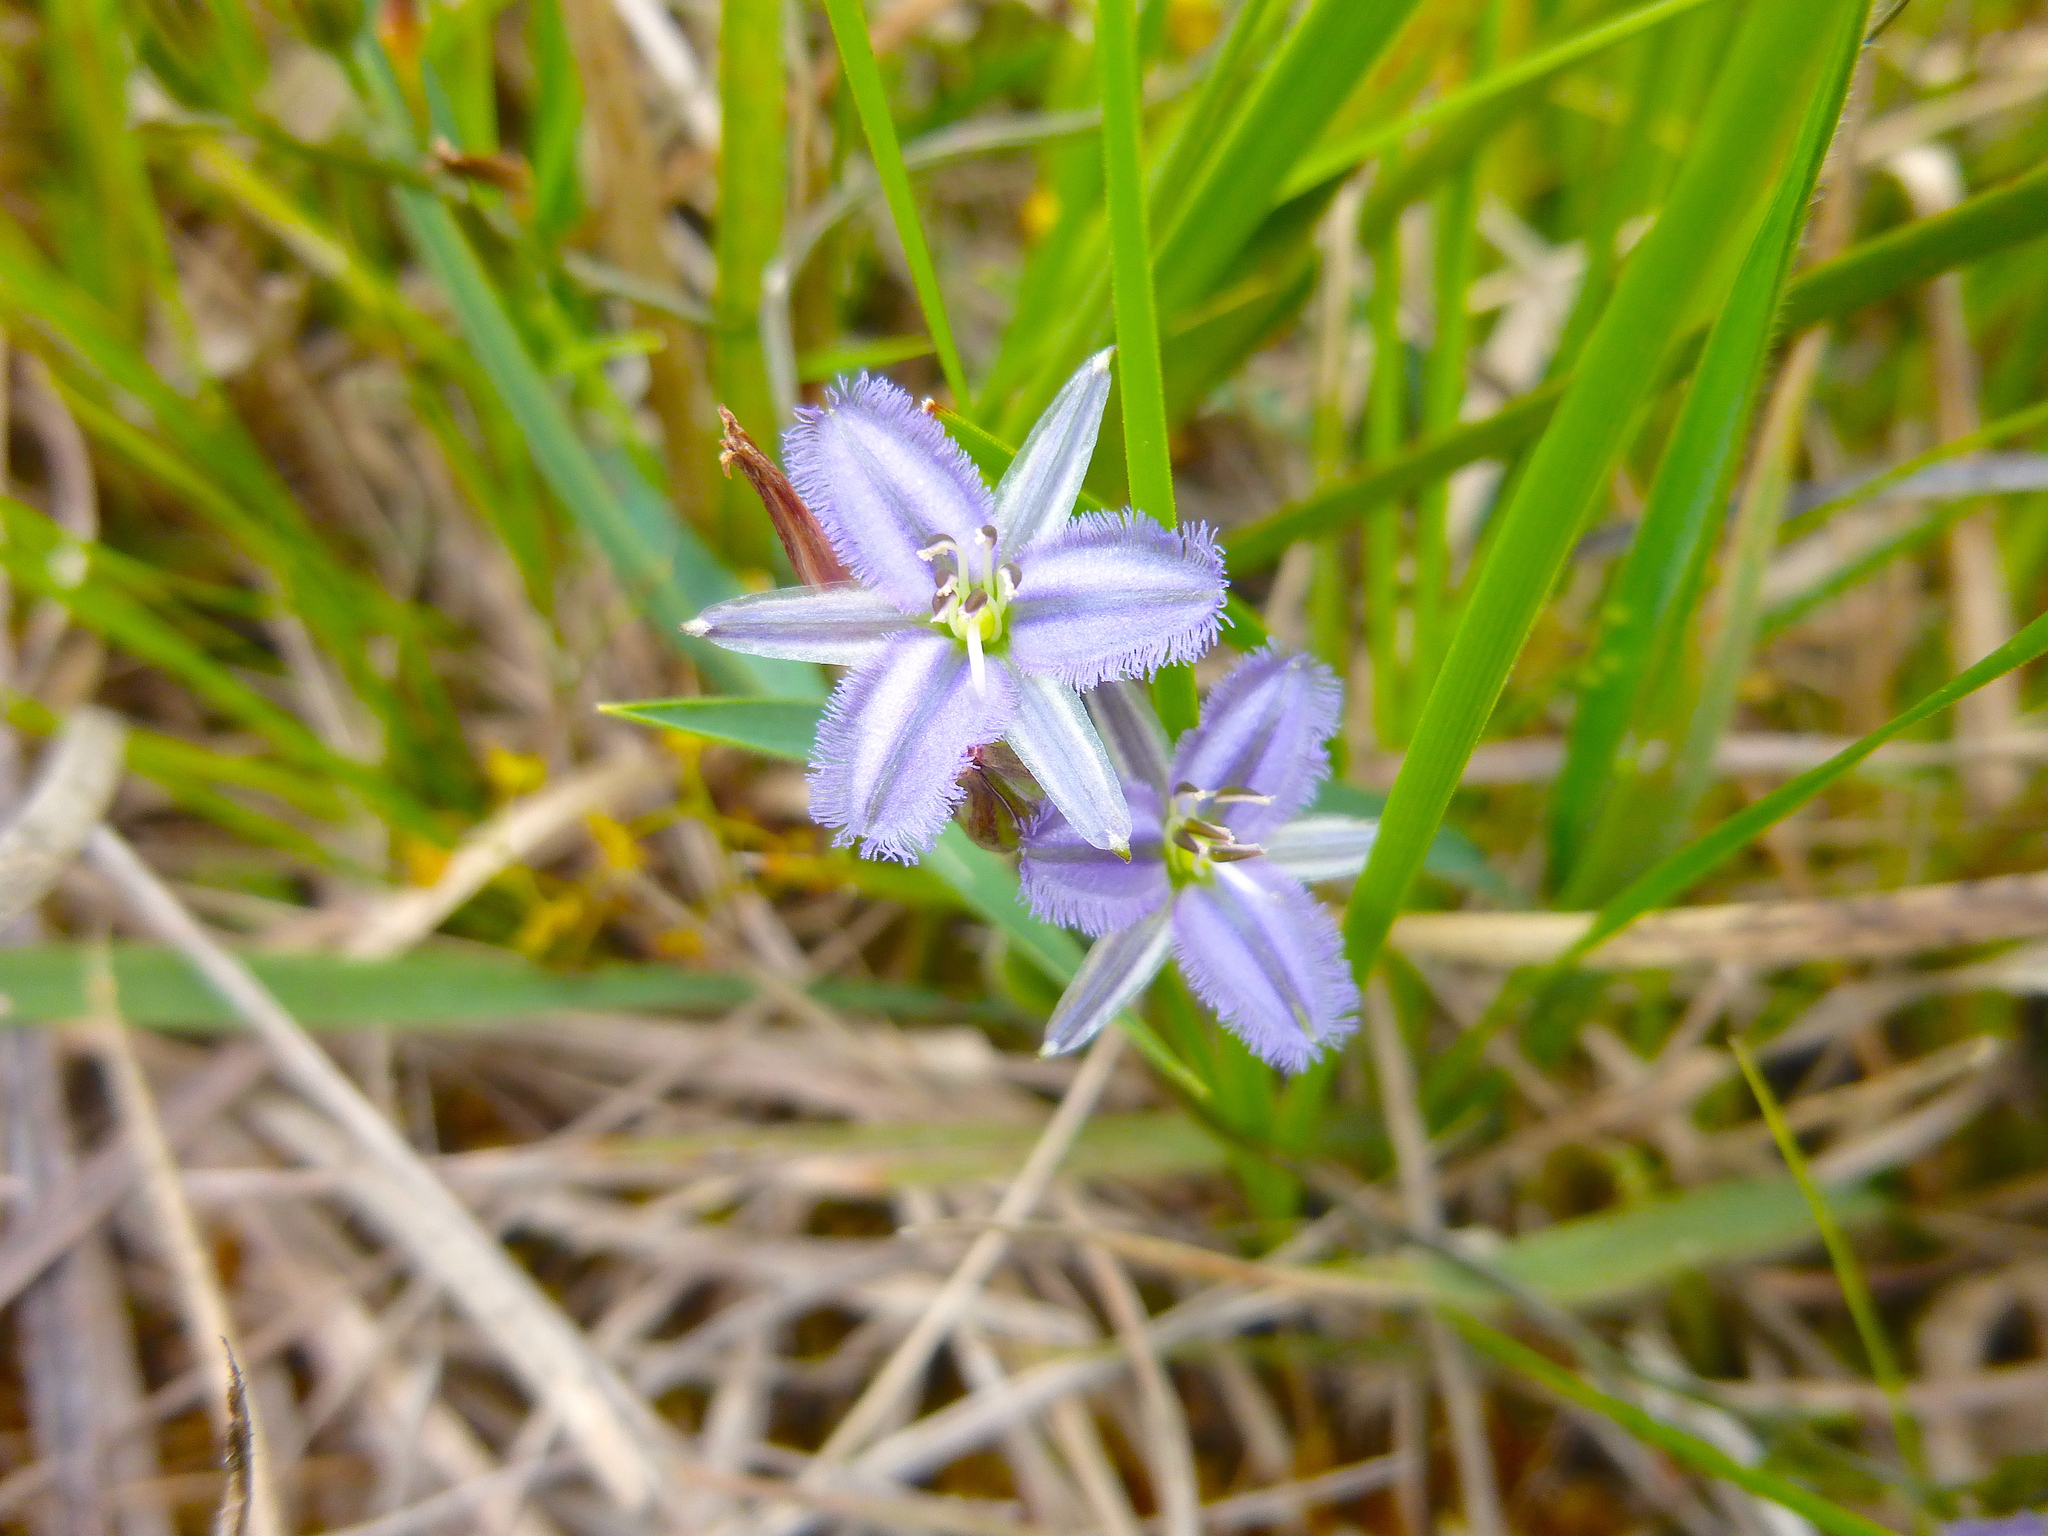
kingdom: Plantae
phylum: Tracheophyta
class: Liliopsida
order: Asparagales
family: Asparagaceae
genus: Thysanotus
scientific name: Thysanotus patersonii
